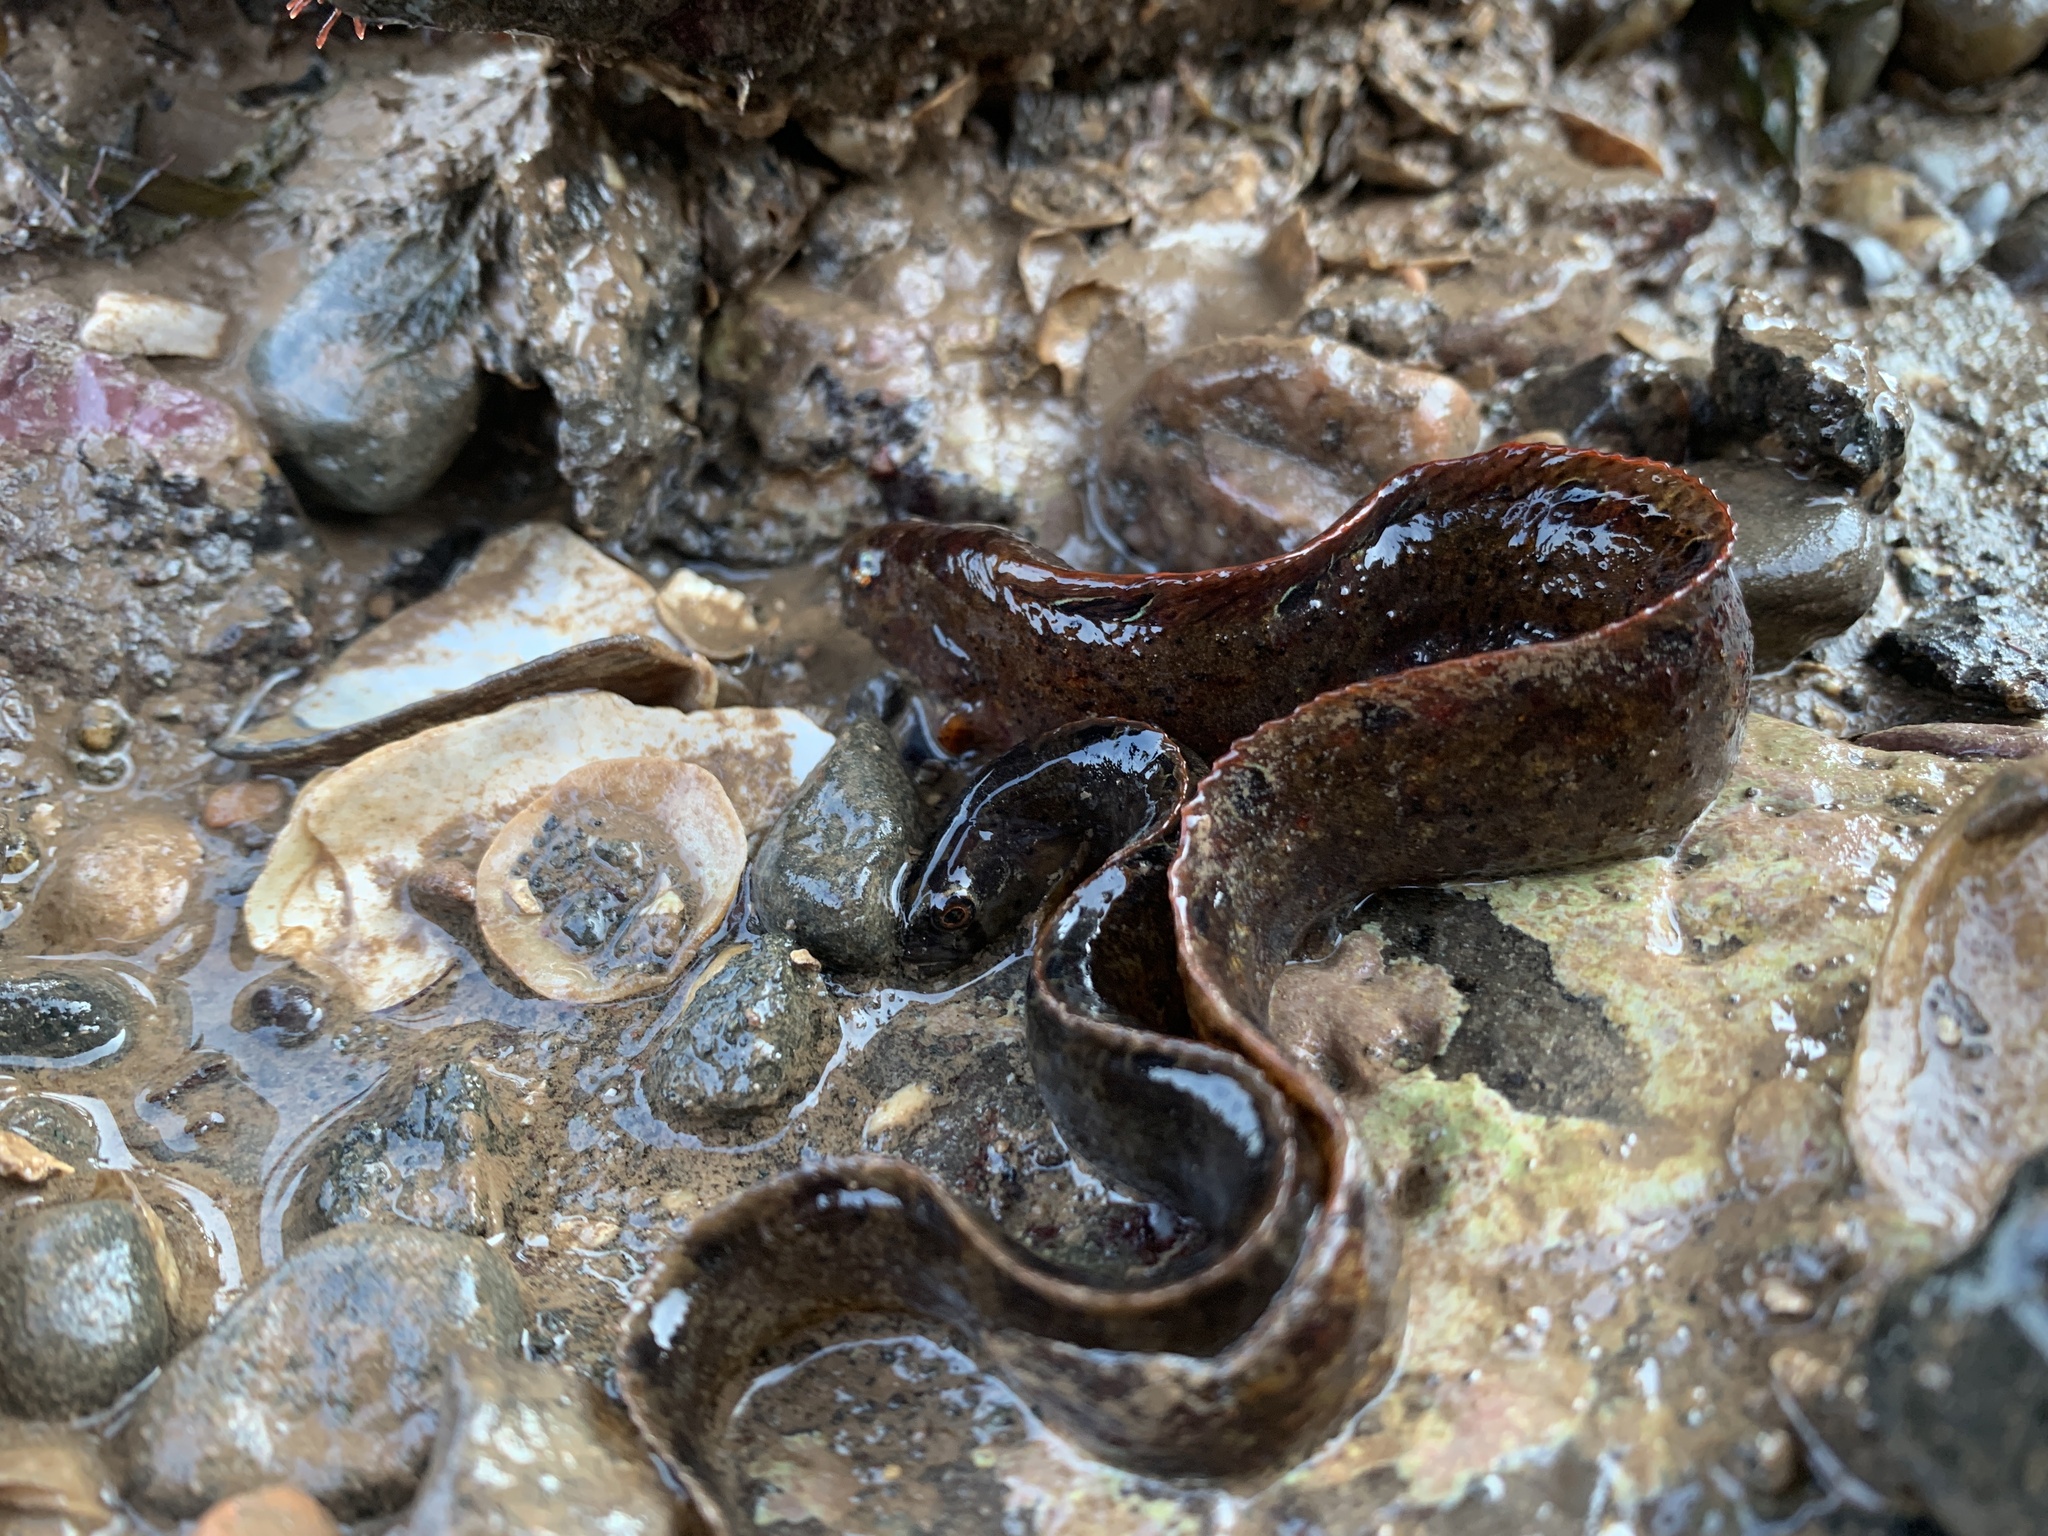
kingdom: Animalia
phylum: Chordata
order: Perciformes
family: Pholidae
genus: Pholis
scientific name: Pholis gunnellus
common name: Butterfish
